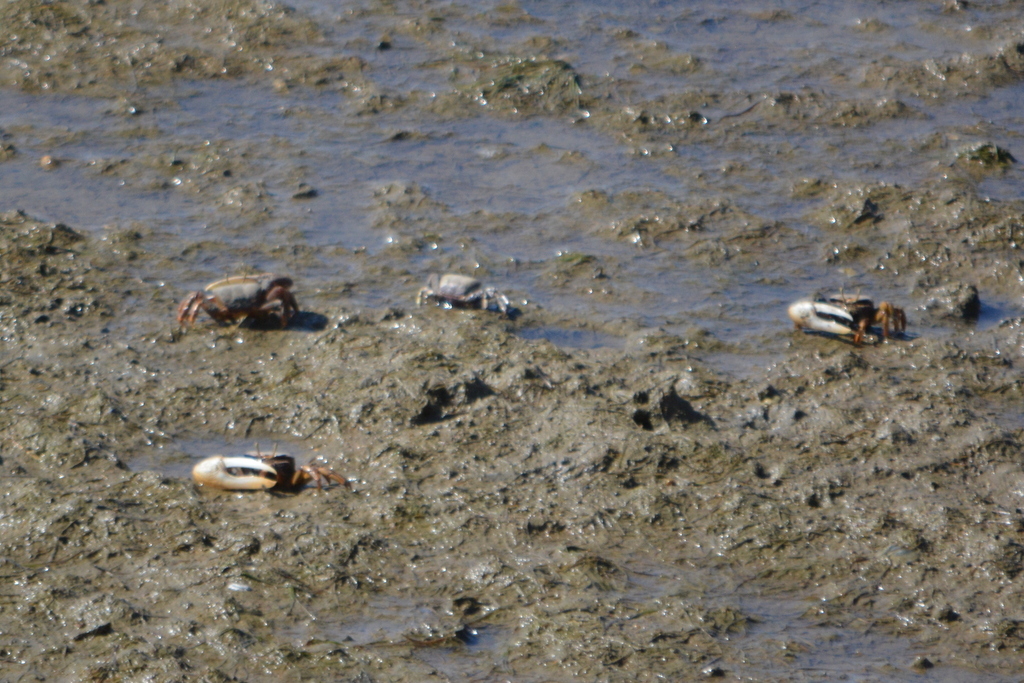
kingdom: Animalia
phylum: Arthropoda
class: Malacostraca
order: Decapoda
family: Ocypodidae
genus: Afruca
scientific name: Afruca tangeri
